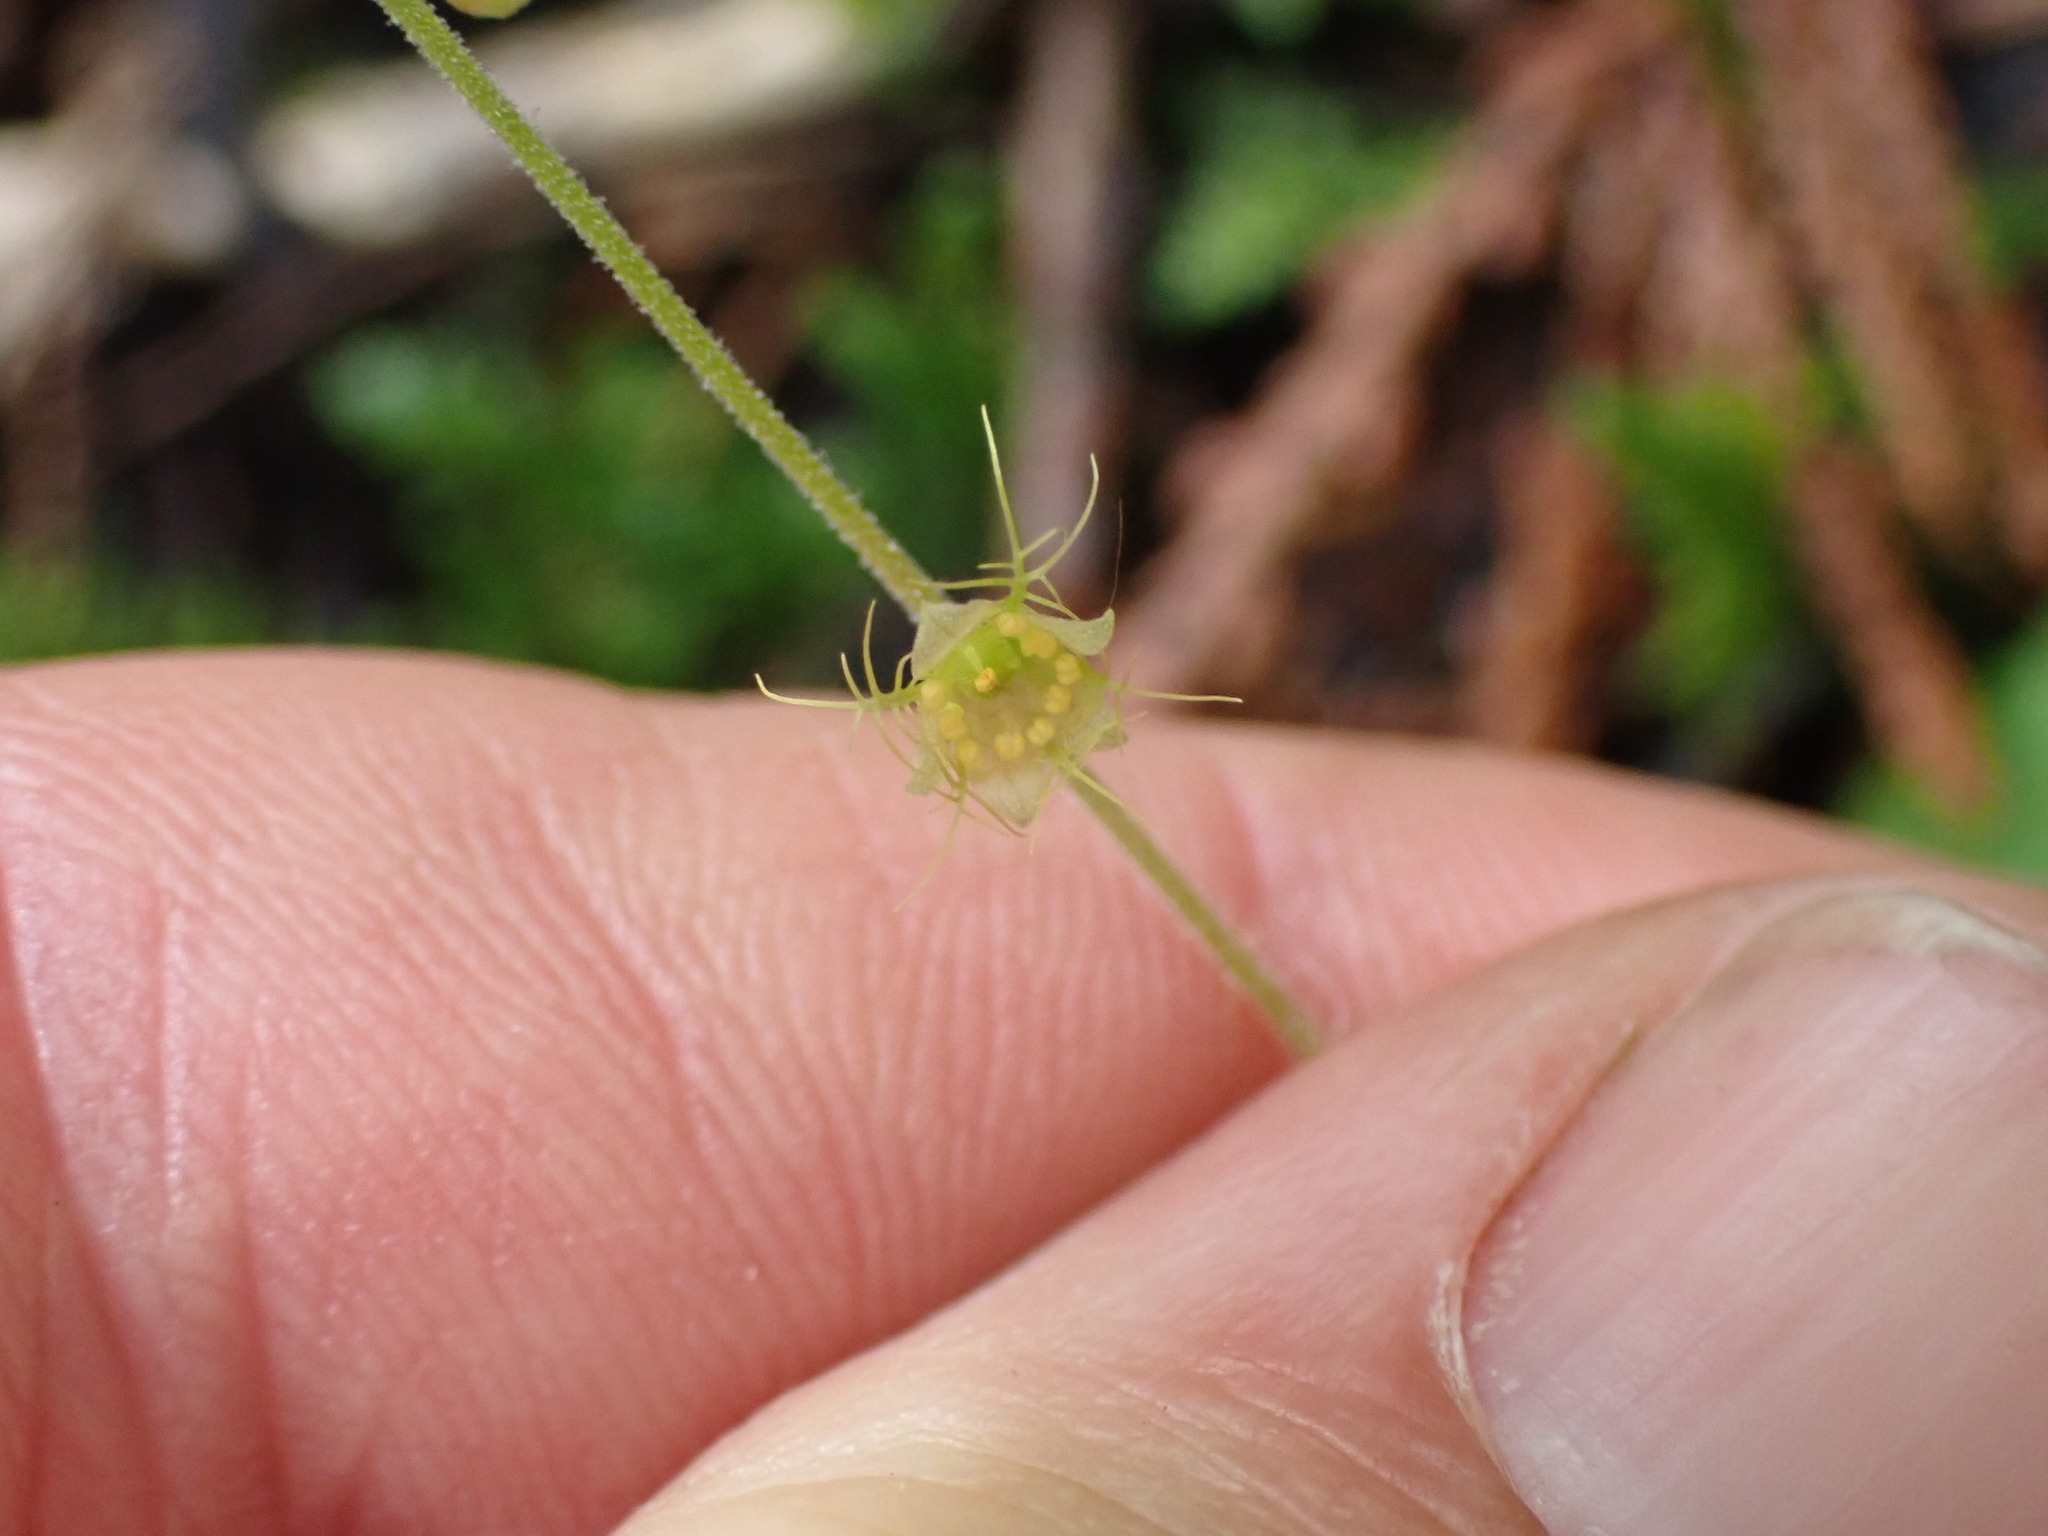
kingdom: Plantae
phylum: Tracheophyta
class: Magnoliopsida
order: Saxifragales
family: Saxifragaceae
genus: Mitella
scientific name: Mitella nuda
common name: Bare-stemmed bishop's-cap
